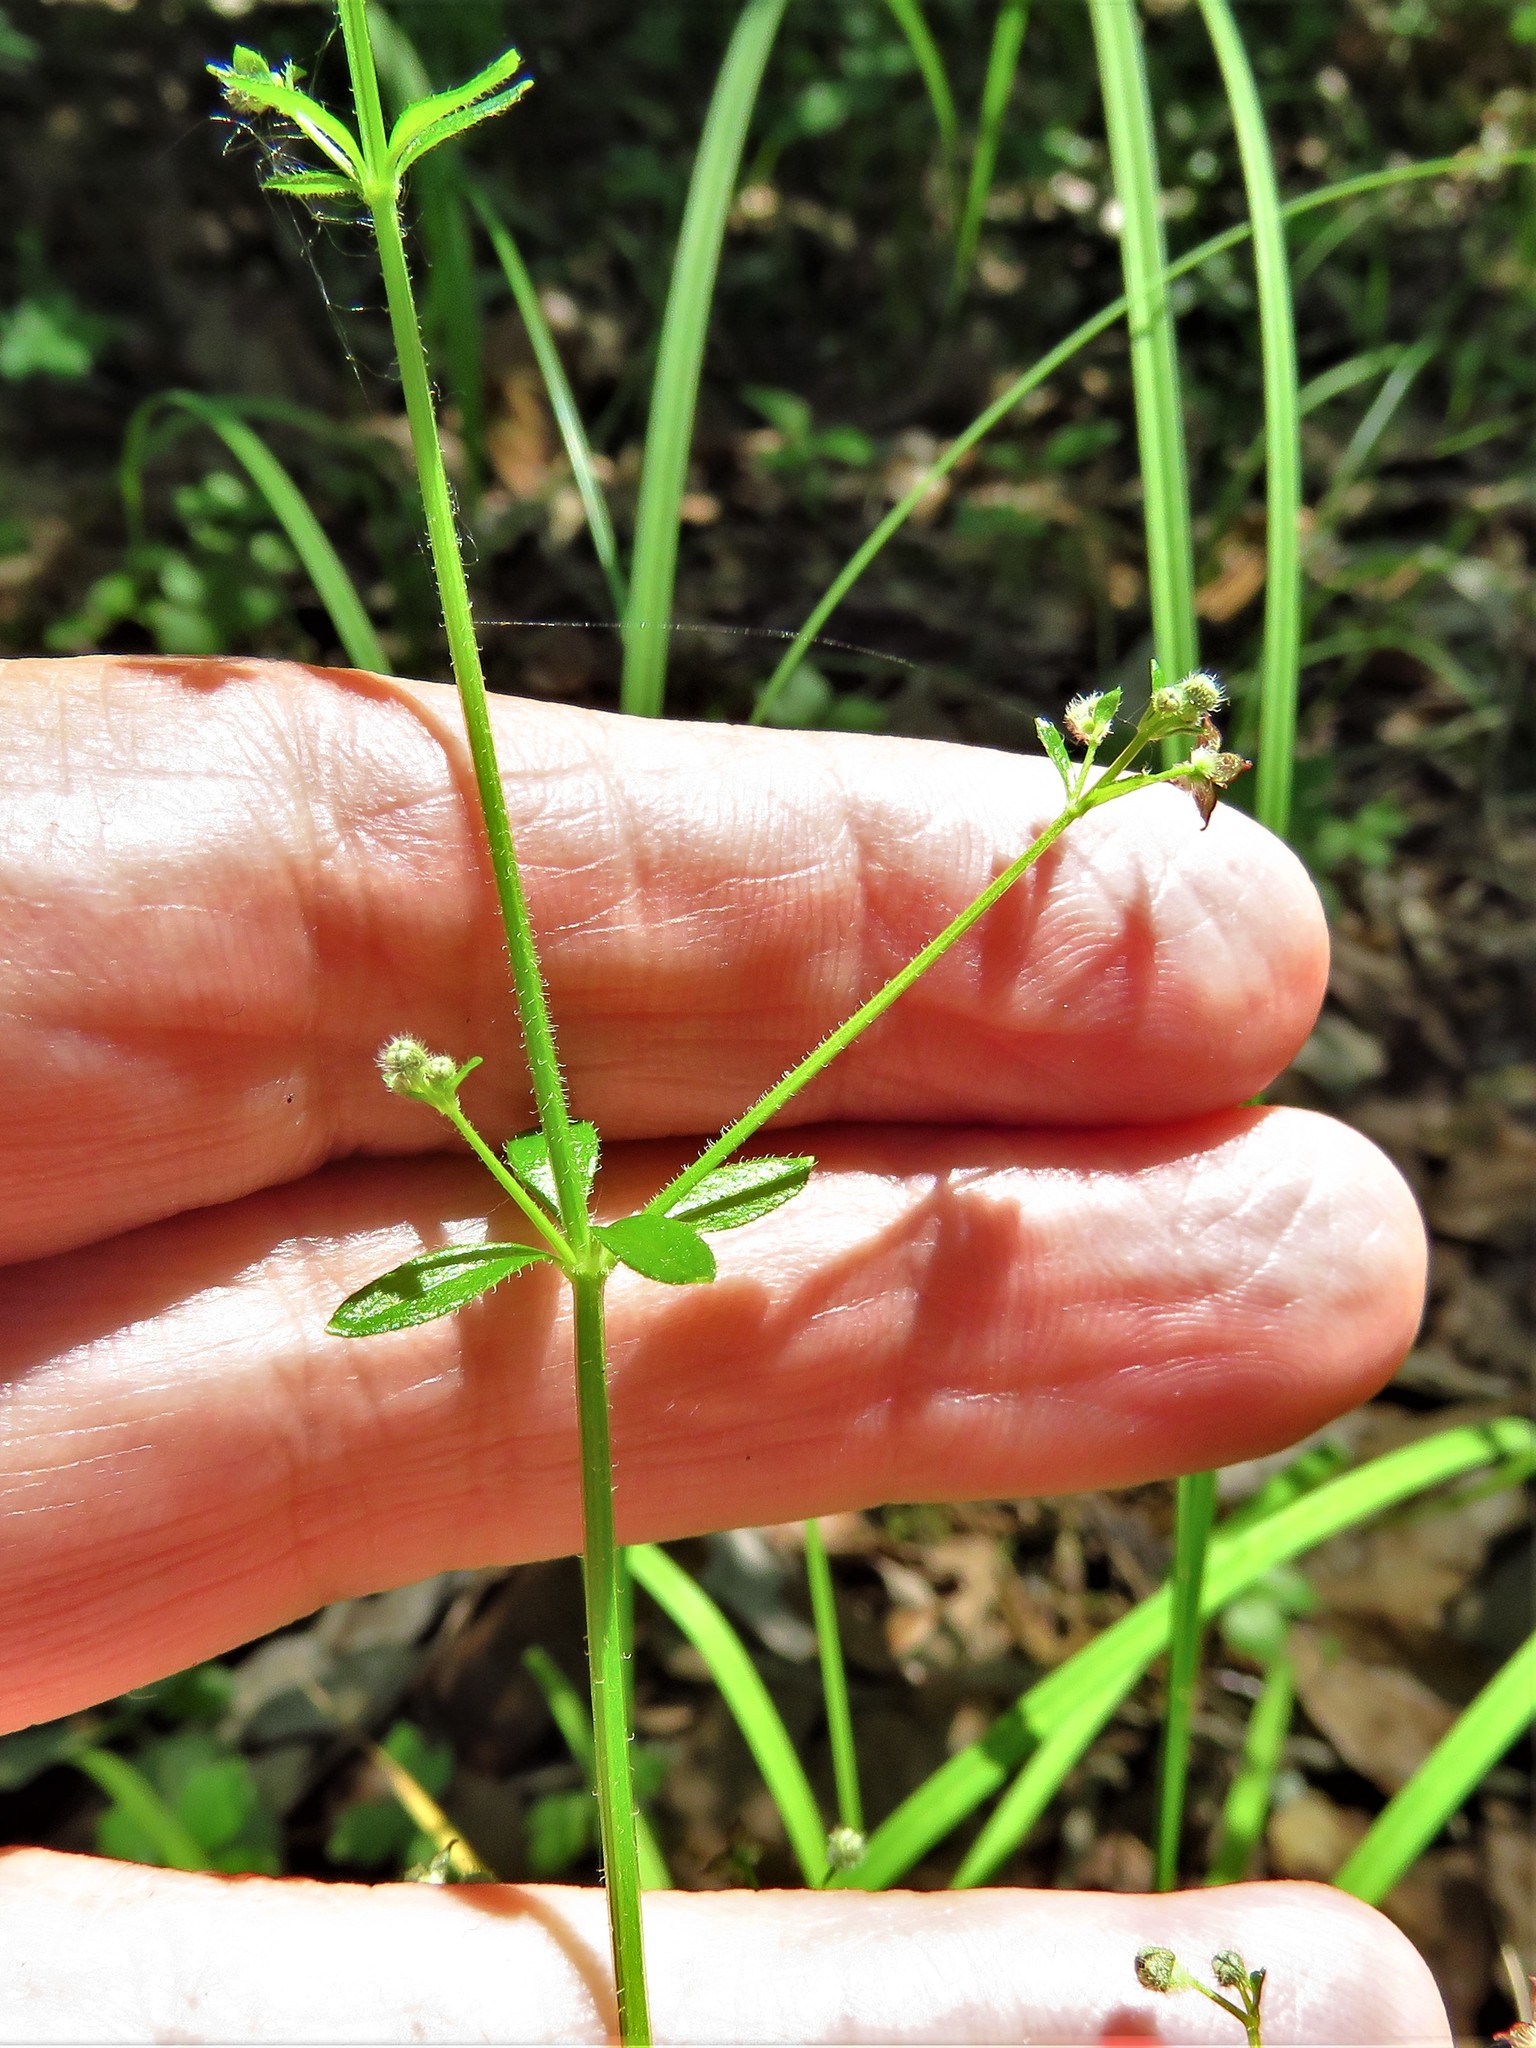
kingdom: Plantae
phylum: Tracheophyta
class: Magnoliopsida
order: Gentianales
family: Rubiaceae
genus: Galium
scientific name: Galium pilosum
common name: Hairy bedstraw
